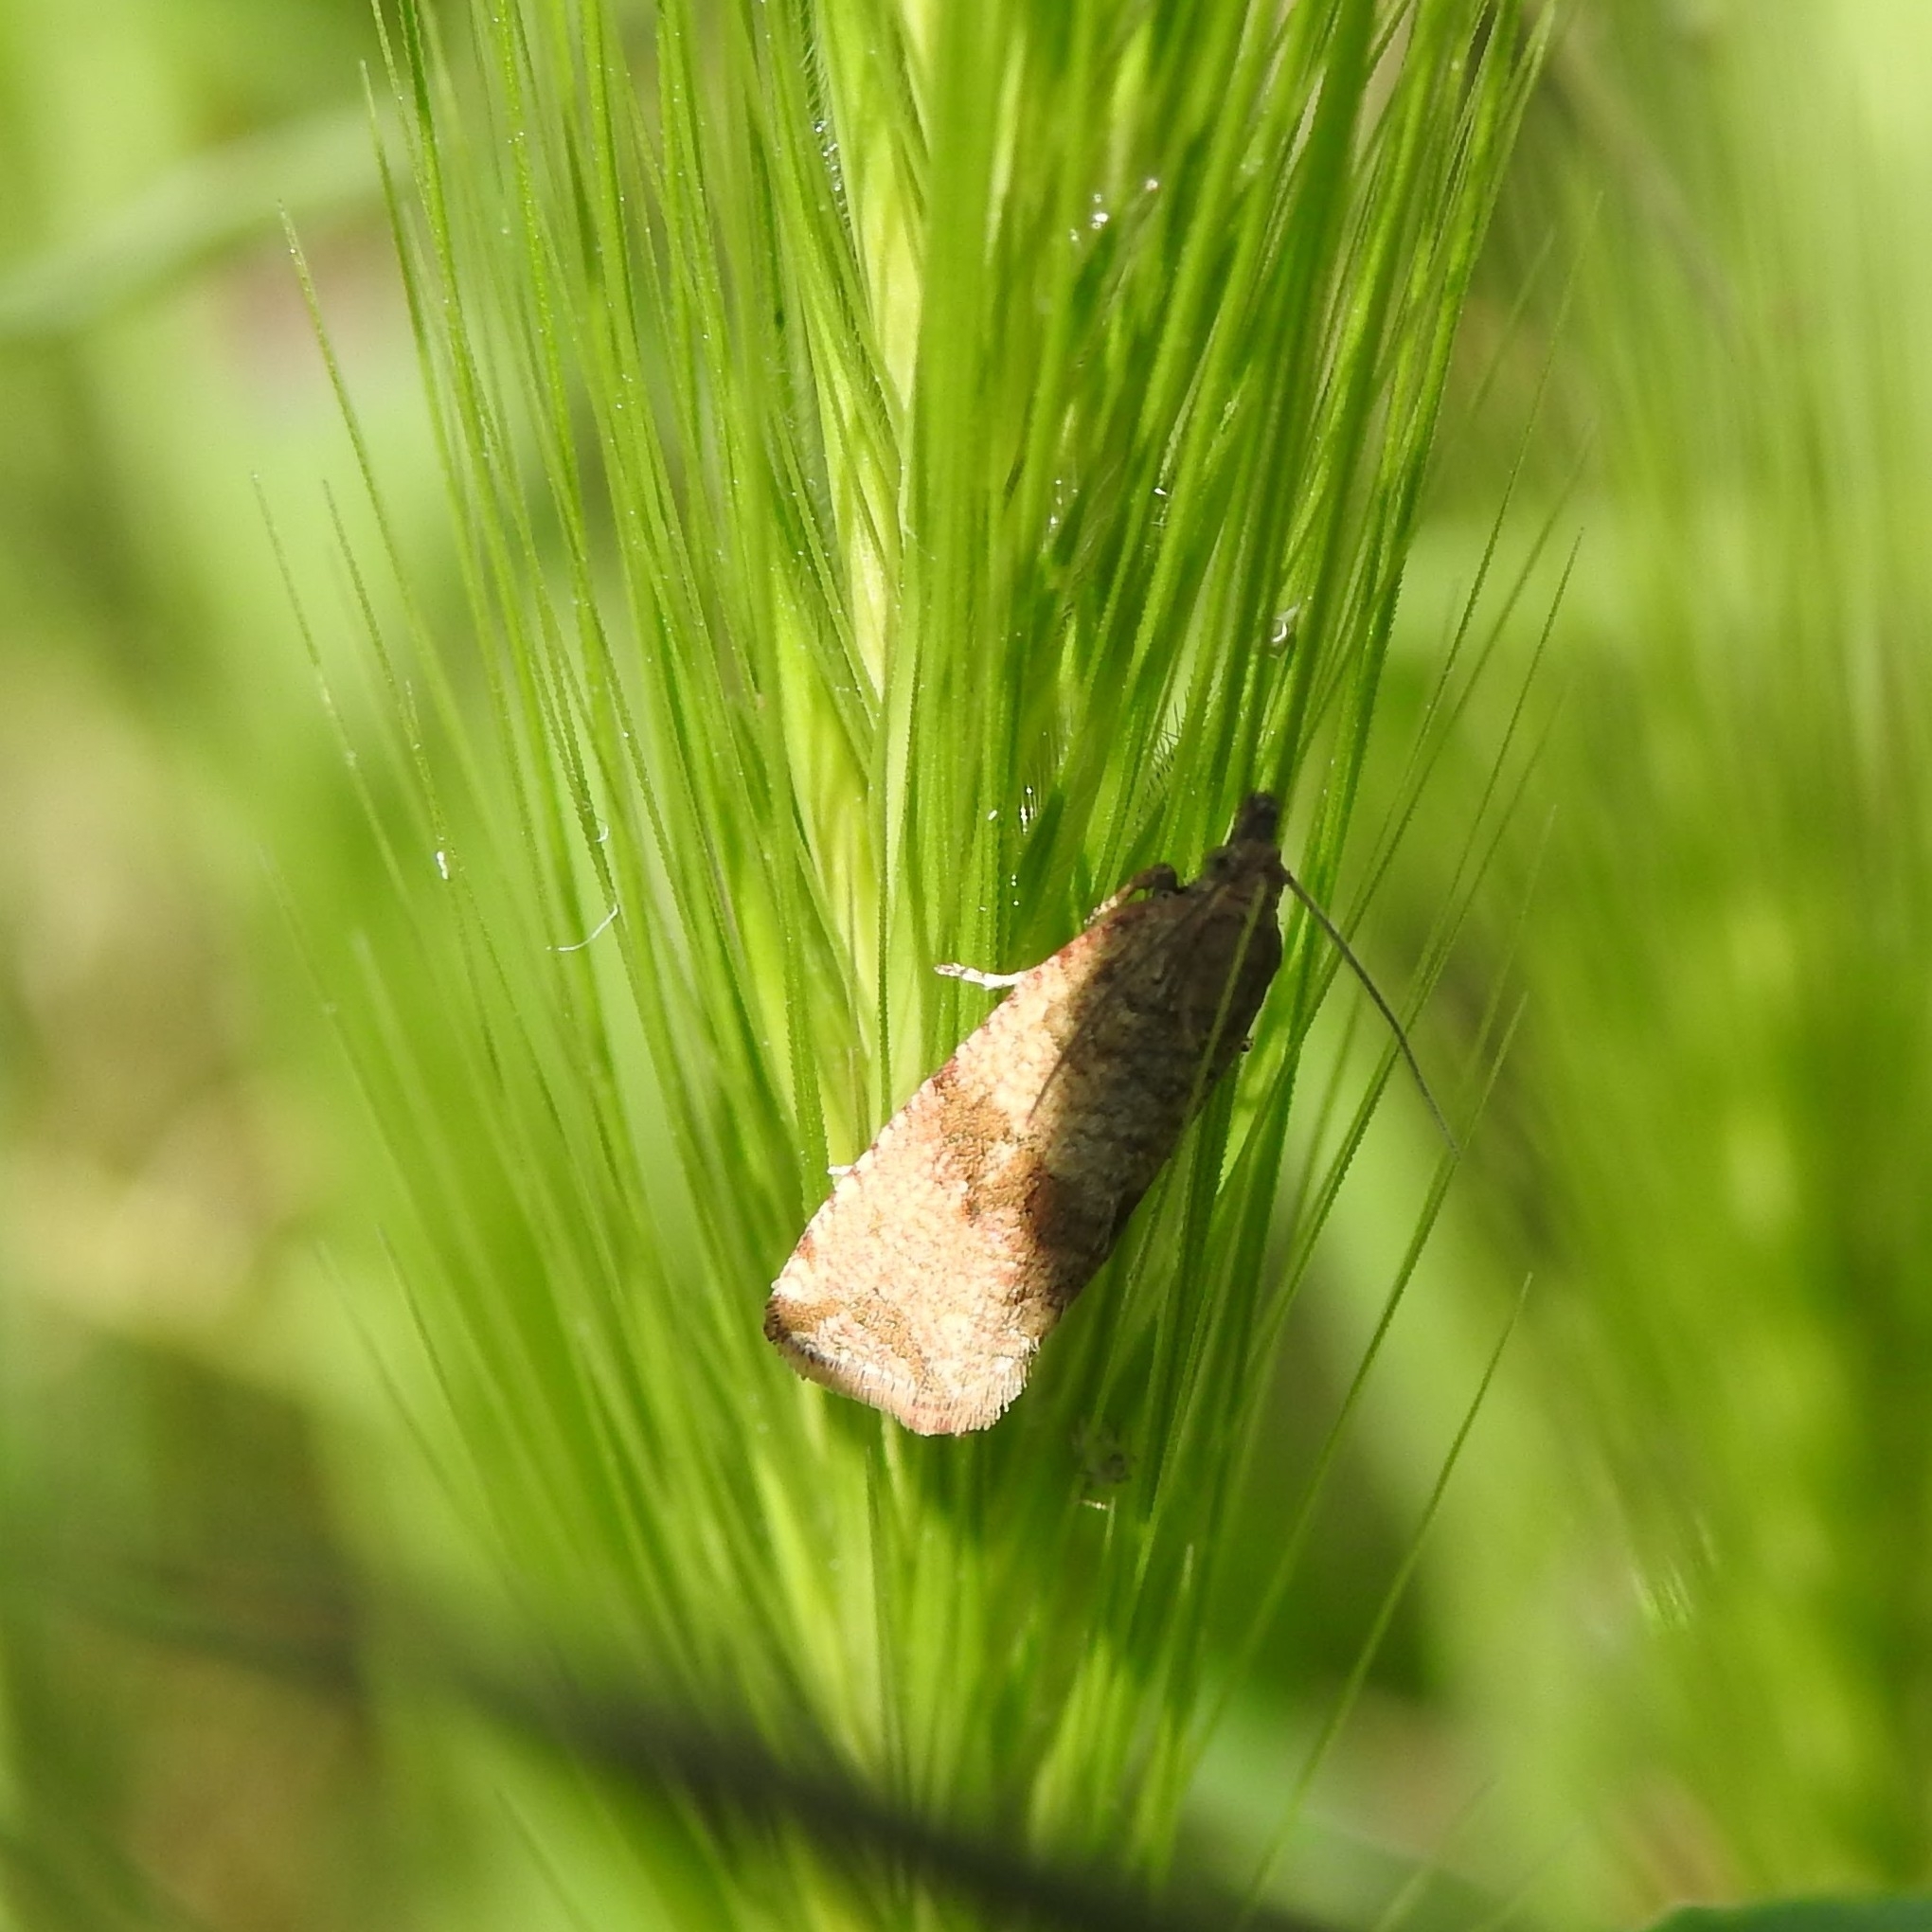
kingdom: Animalia
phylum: Arthropoda
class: Insecta
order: Lepidoptera
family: Tortricidae
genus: Celypha
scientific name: Celypha striana
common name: Barred marble
